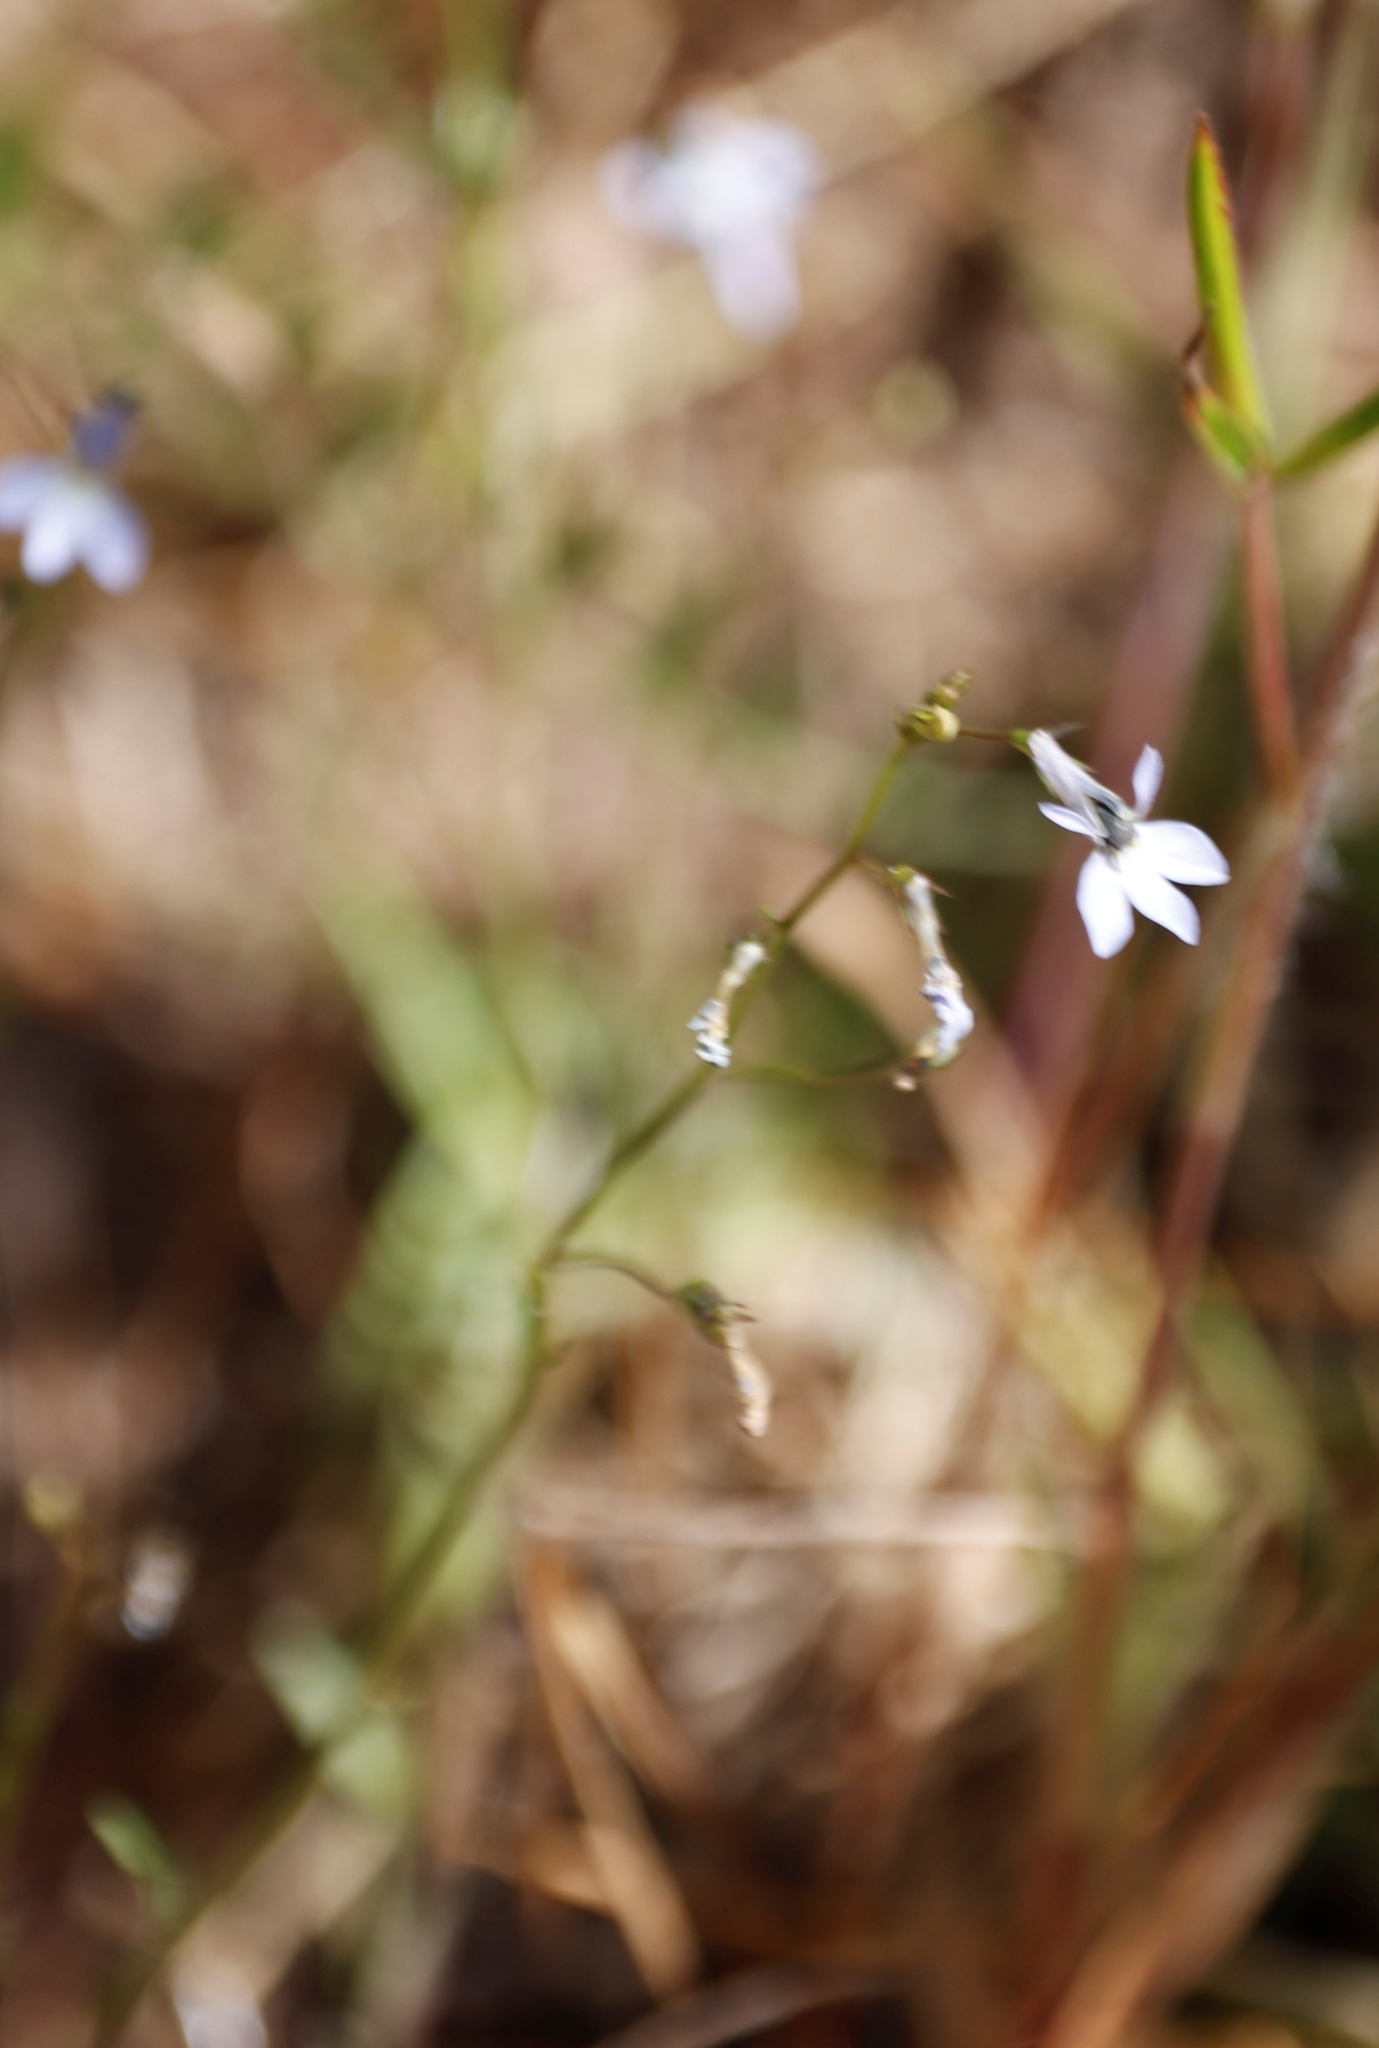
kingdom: Plantae
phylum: Tracheophyta
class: Magnoliopsida
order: Asterales
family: Campanulaceae
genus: Lobelia
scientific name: Lobelia erinus
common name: Edging lobelia
